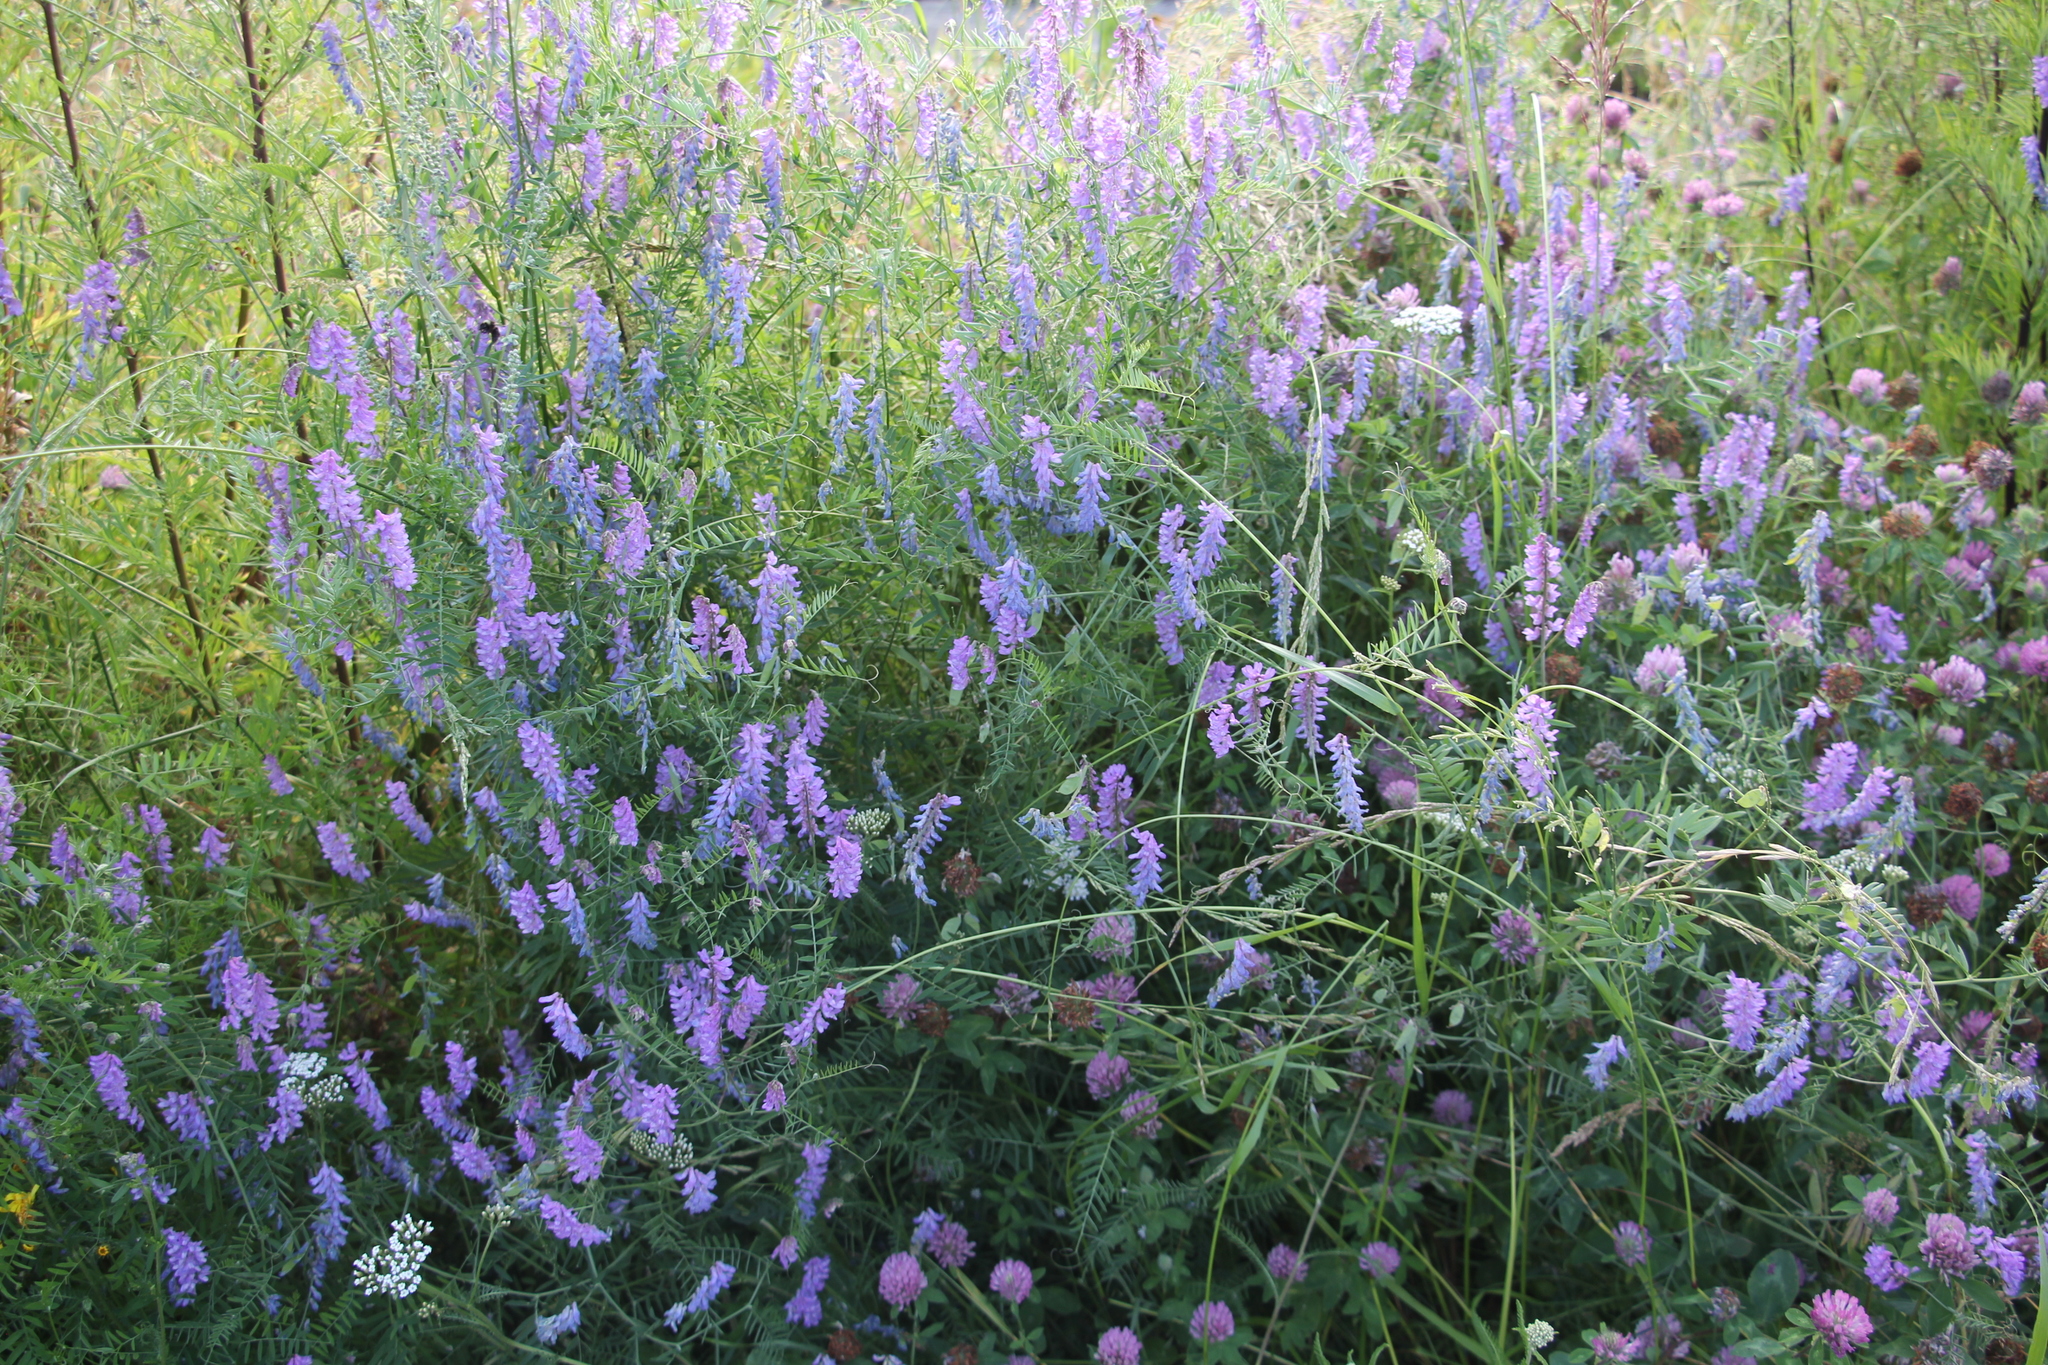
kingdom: Plantae
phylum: Tracheophyta
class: Magnoliopsida
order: Fabales
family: Fabaceae
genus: Vicia
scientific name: Vicia cracca
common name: Bird vetch
